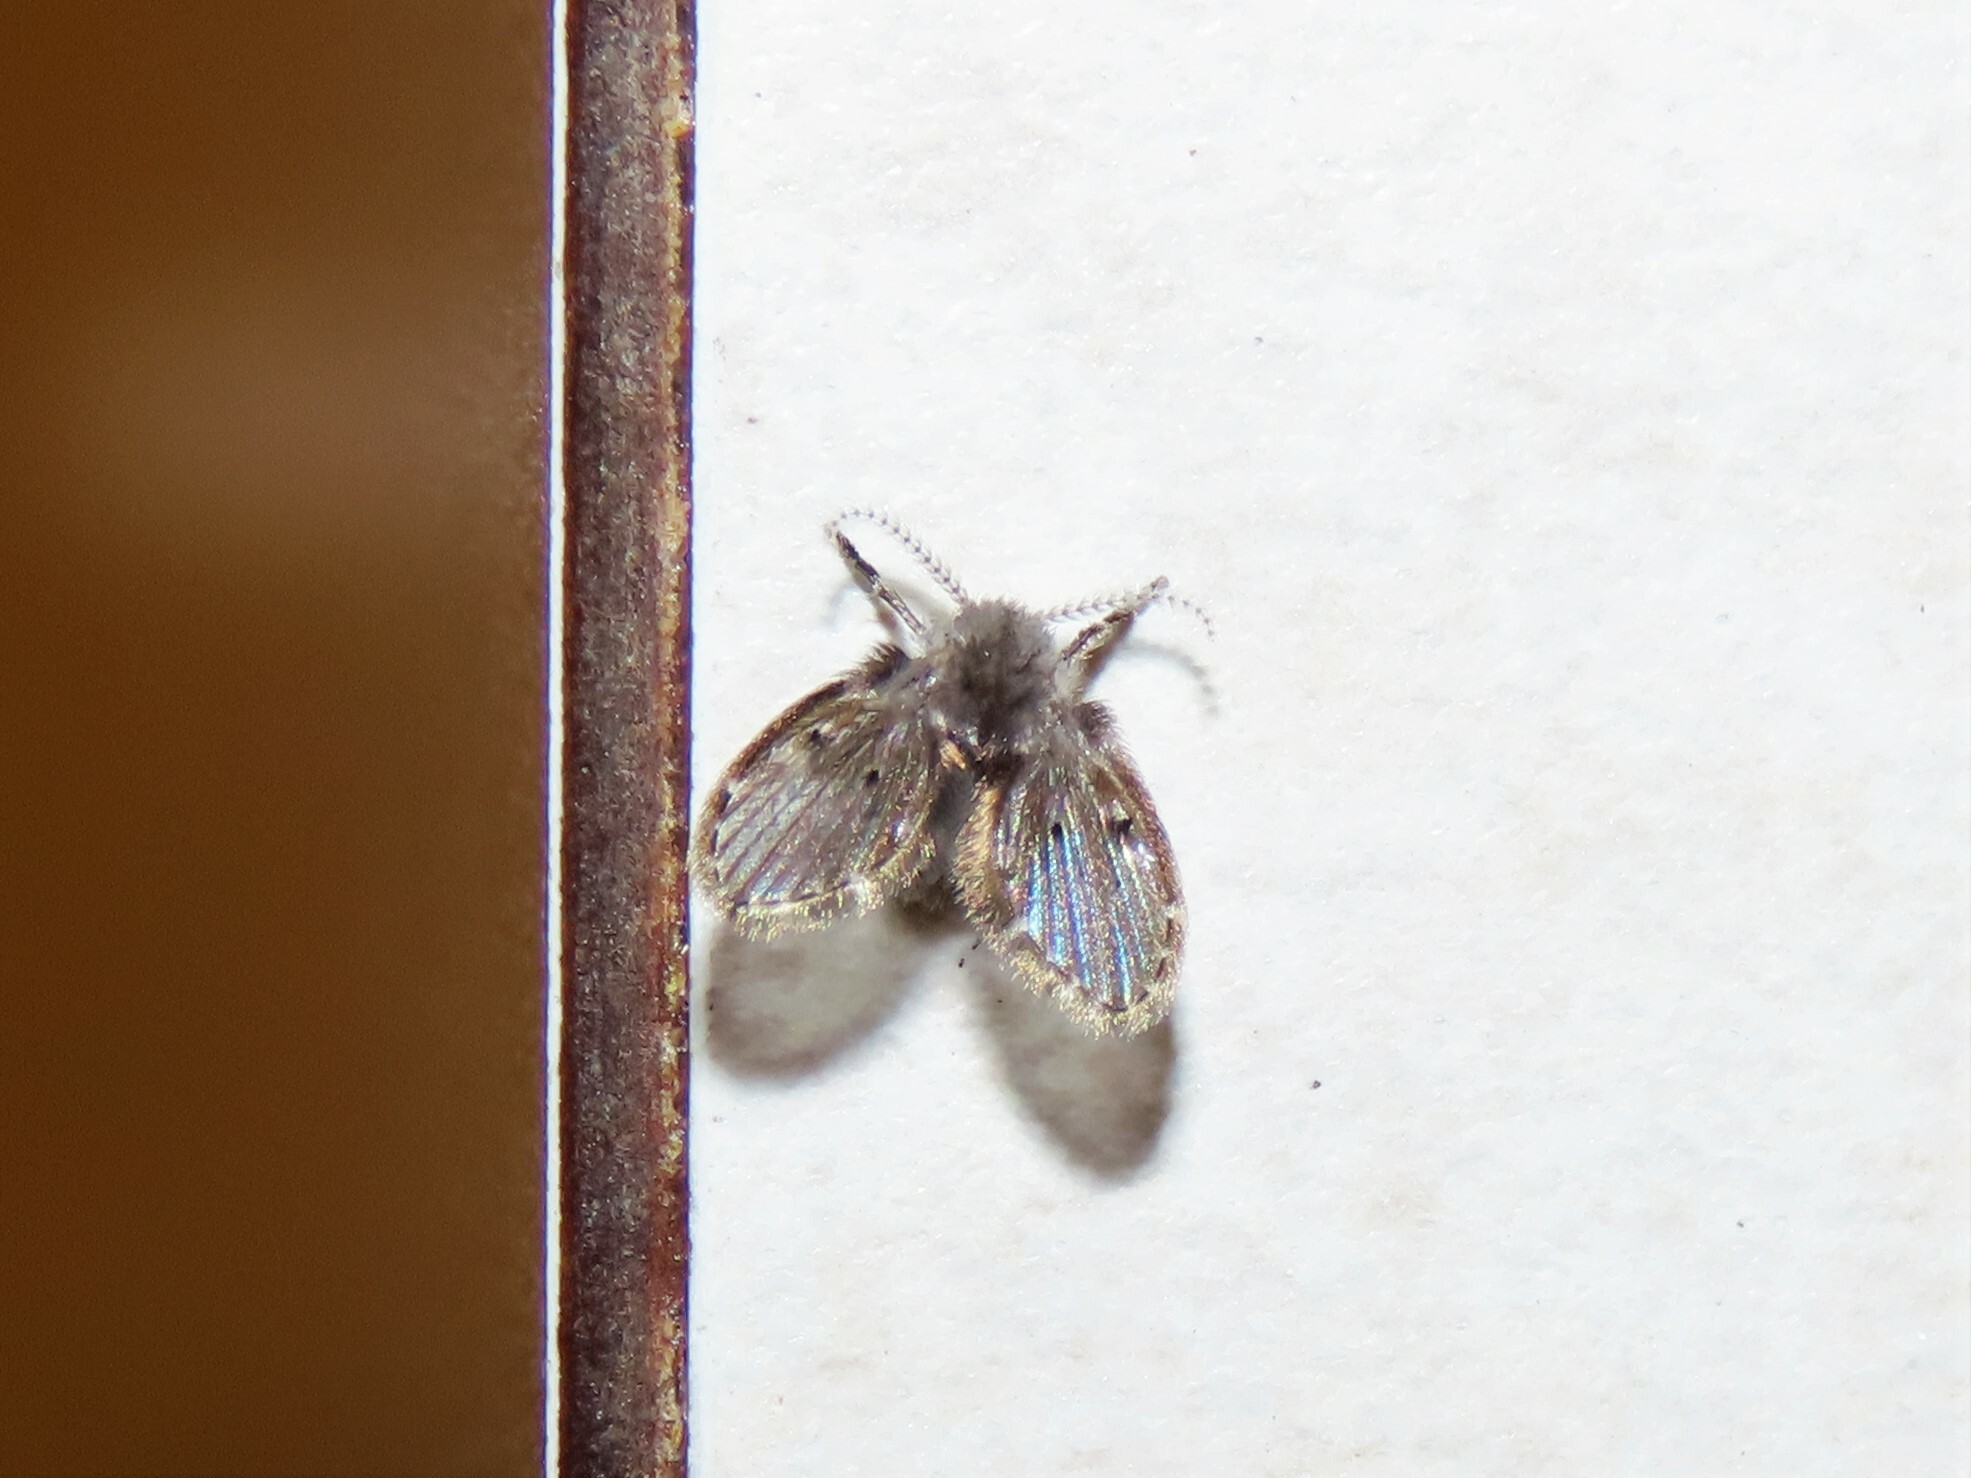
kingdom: Animalia
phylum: Arthropoda
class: Insecta
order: Diptera
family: Psychodidae
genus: Clogmia
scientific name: Clogmia albipunctatus
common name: White-spotted moth fly
